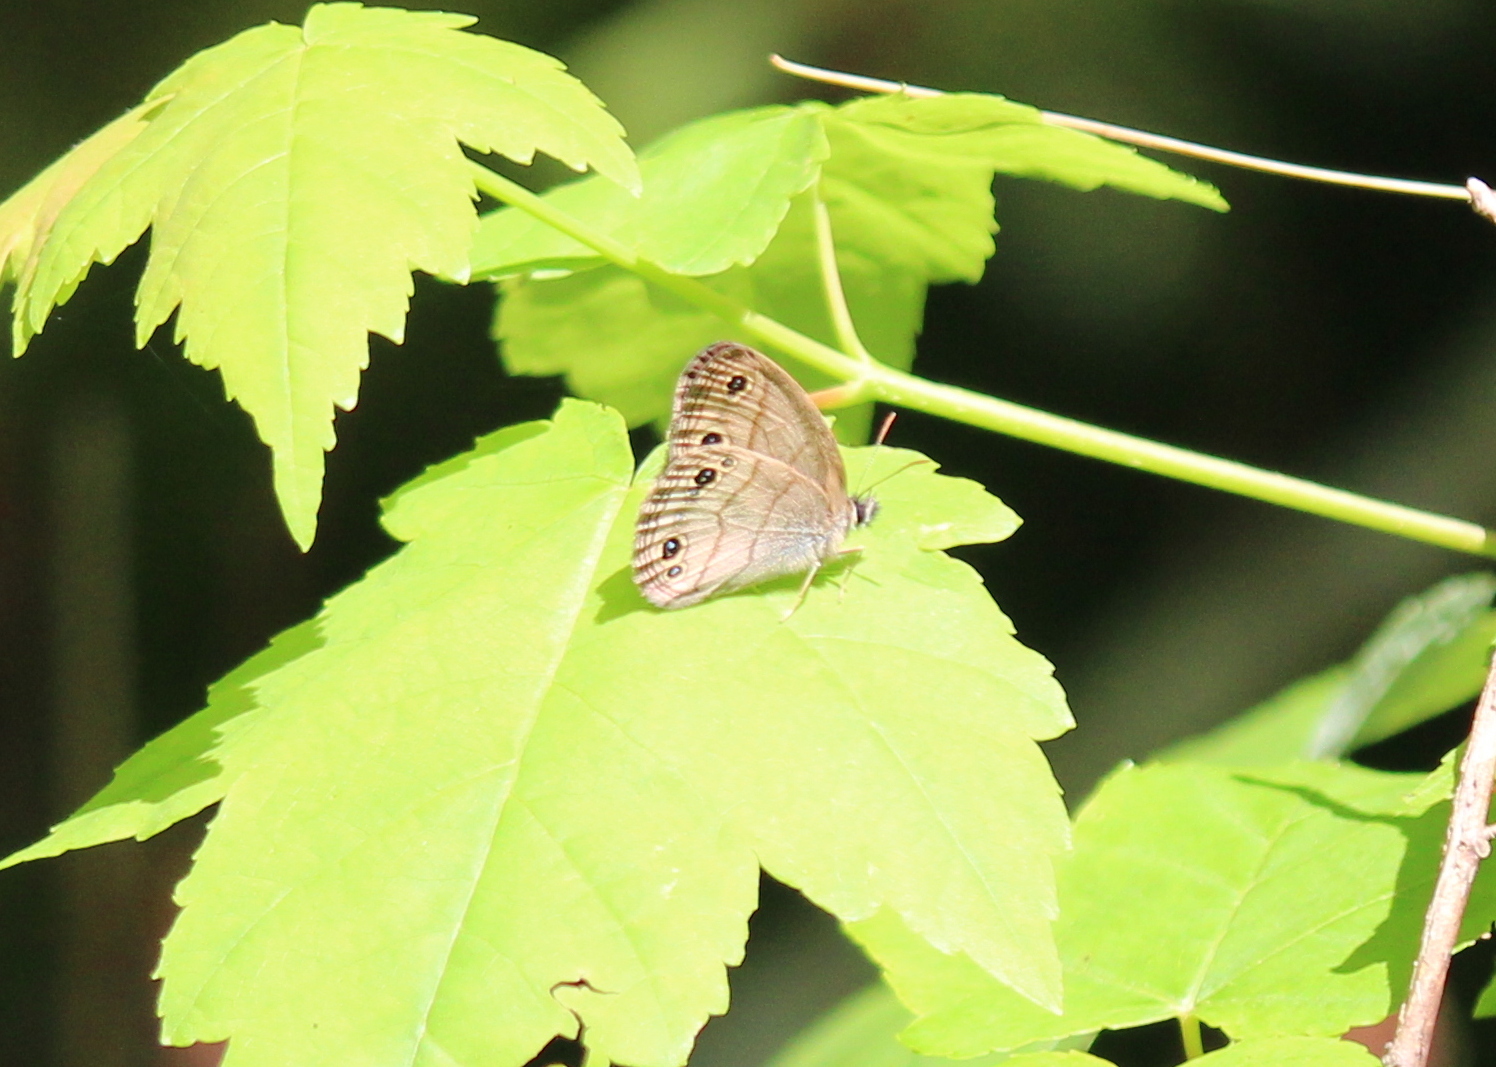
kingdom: Animalia
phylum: Arthropoda
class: Insecta
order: Lepidoptera
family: Nymphalidae
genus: Euptychia
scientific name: Euptychia cymela
